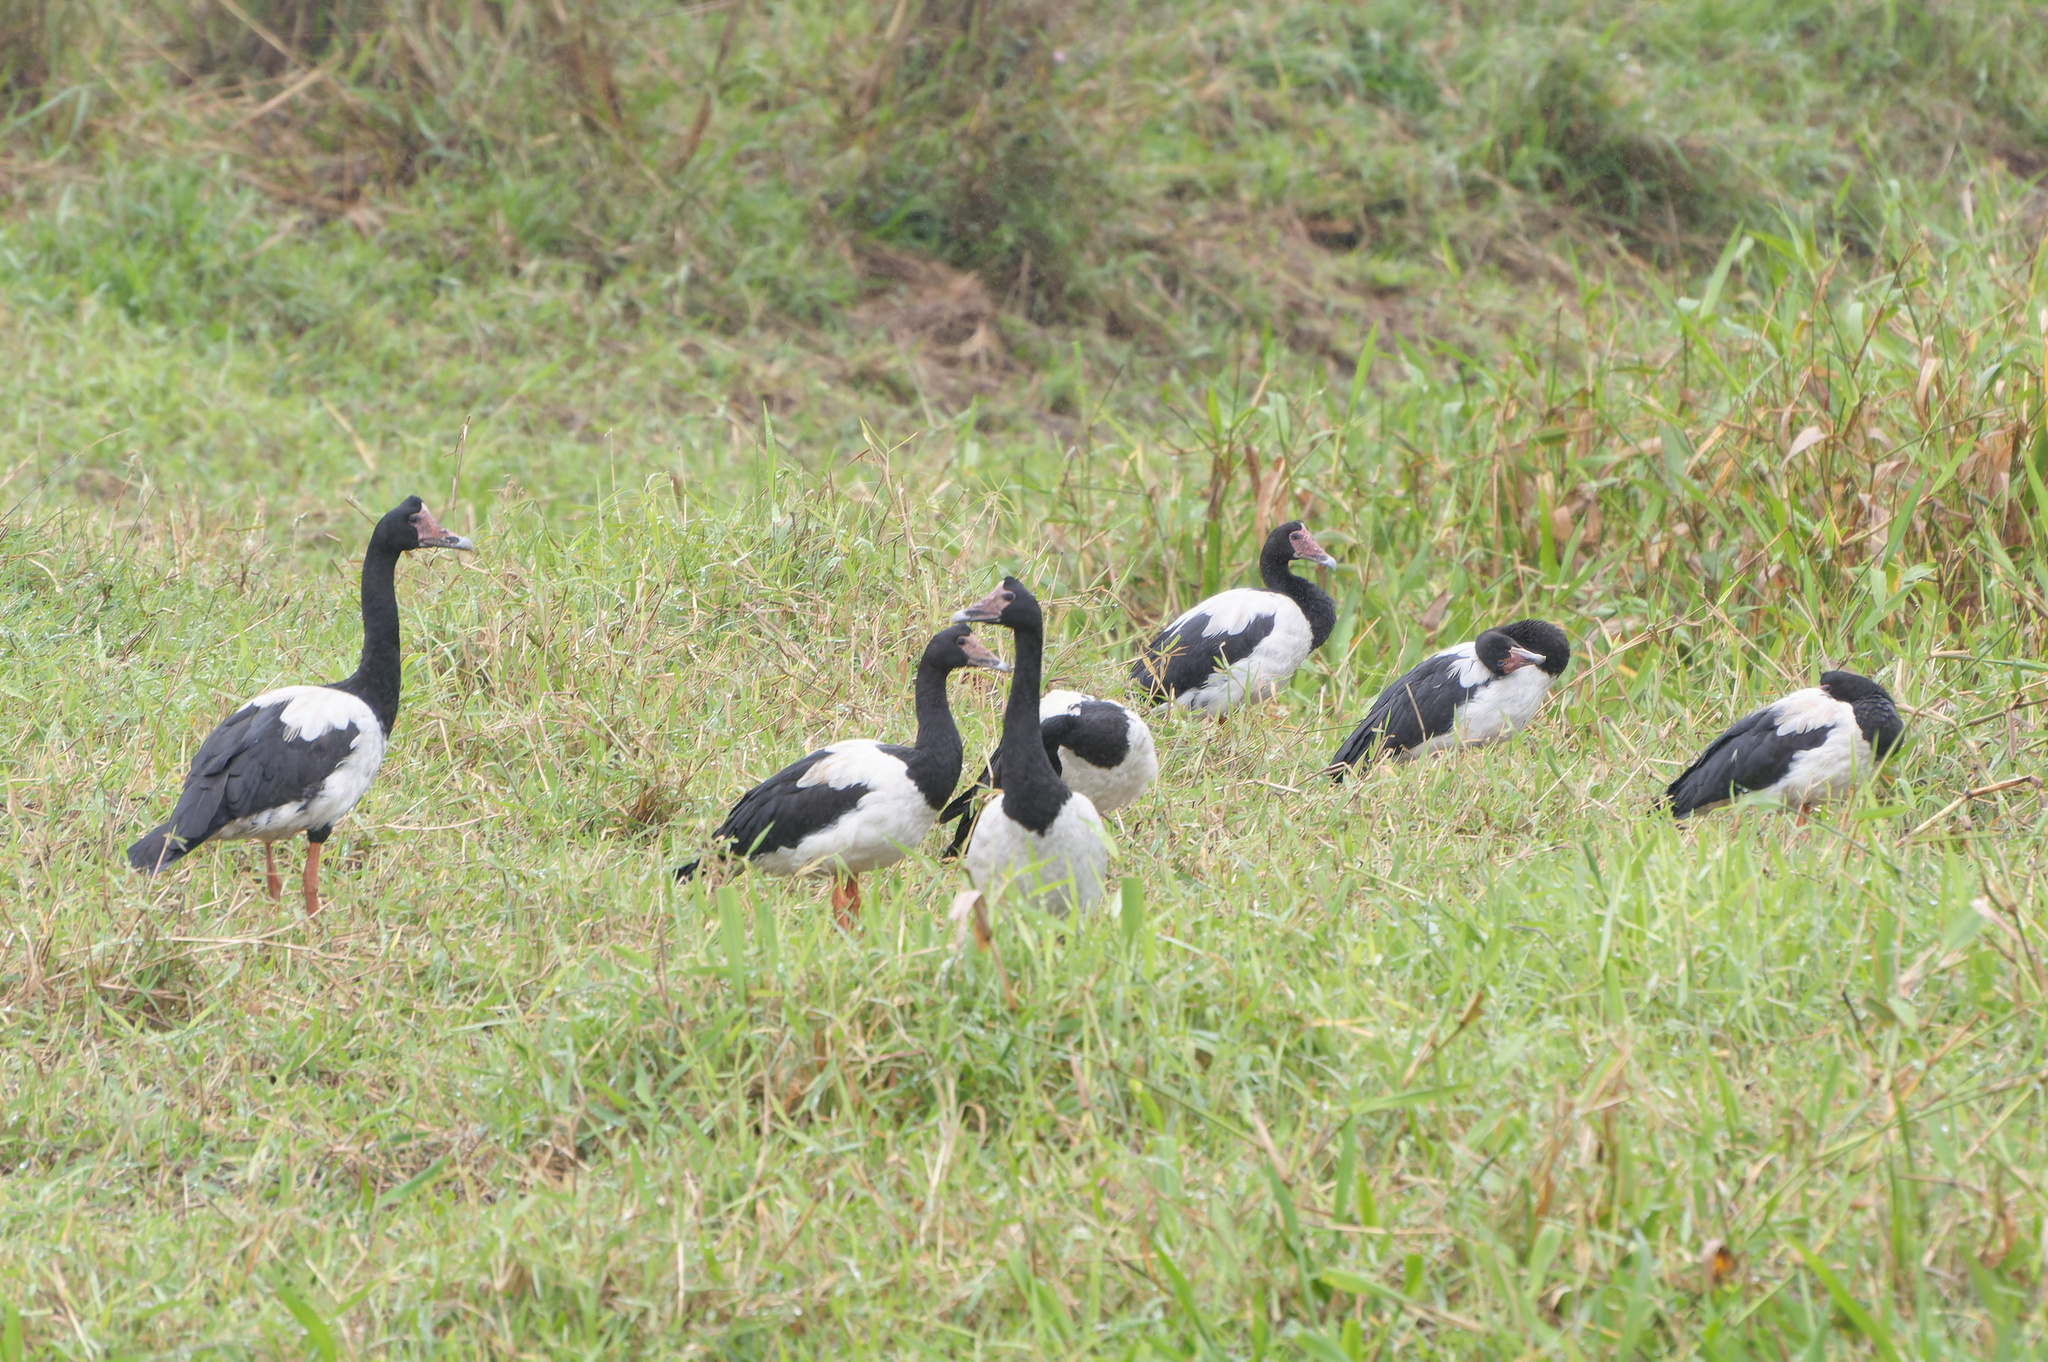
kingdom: Animalia
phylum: Chordata
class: Aves
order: Anseriformes
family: Anseranatidae
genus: Anseranas
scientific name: Anseranas semipalmata
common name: Magpie goose
